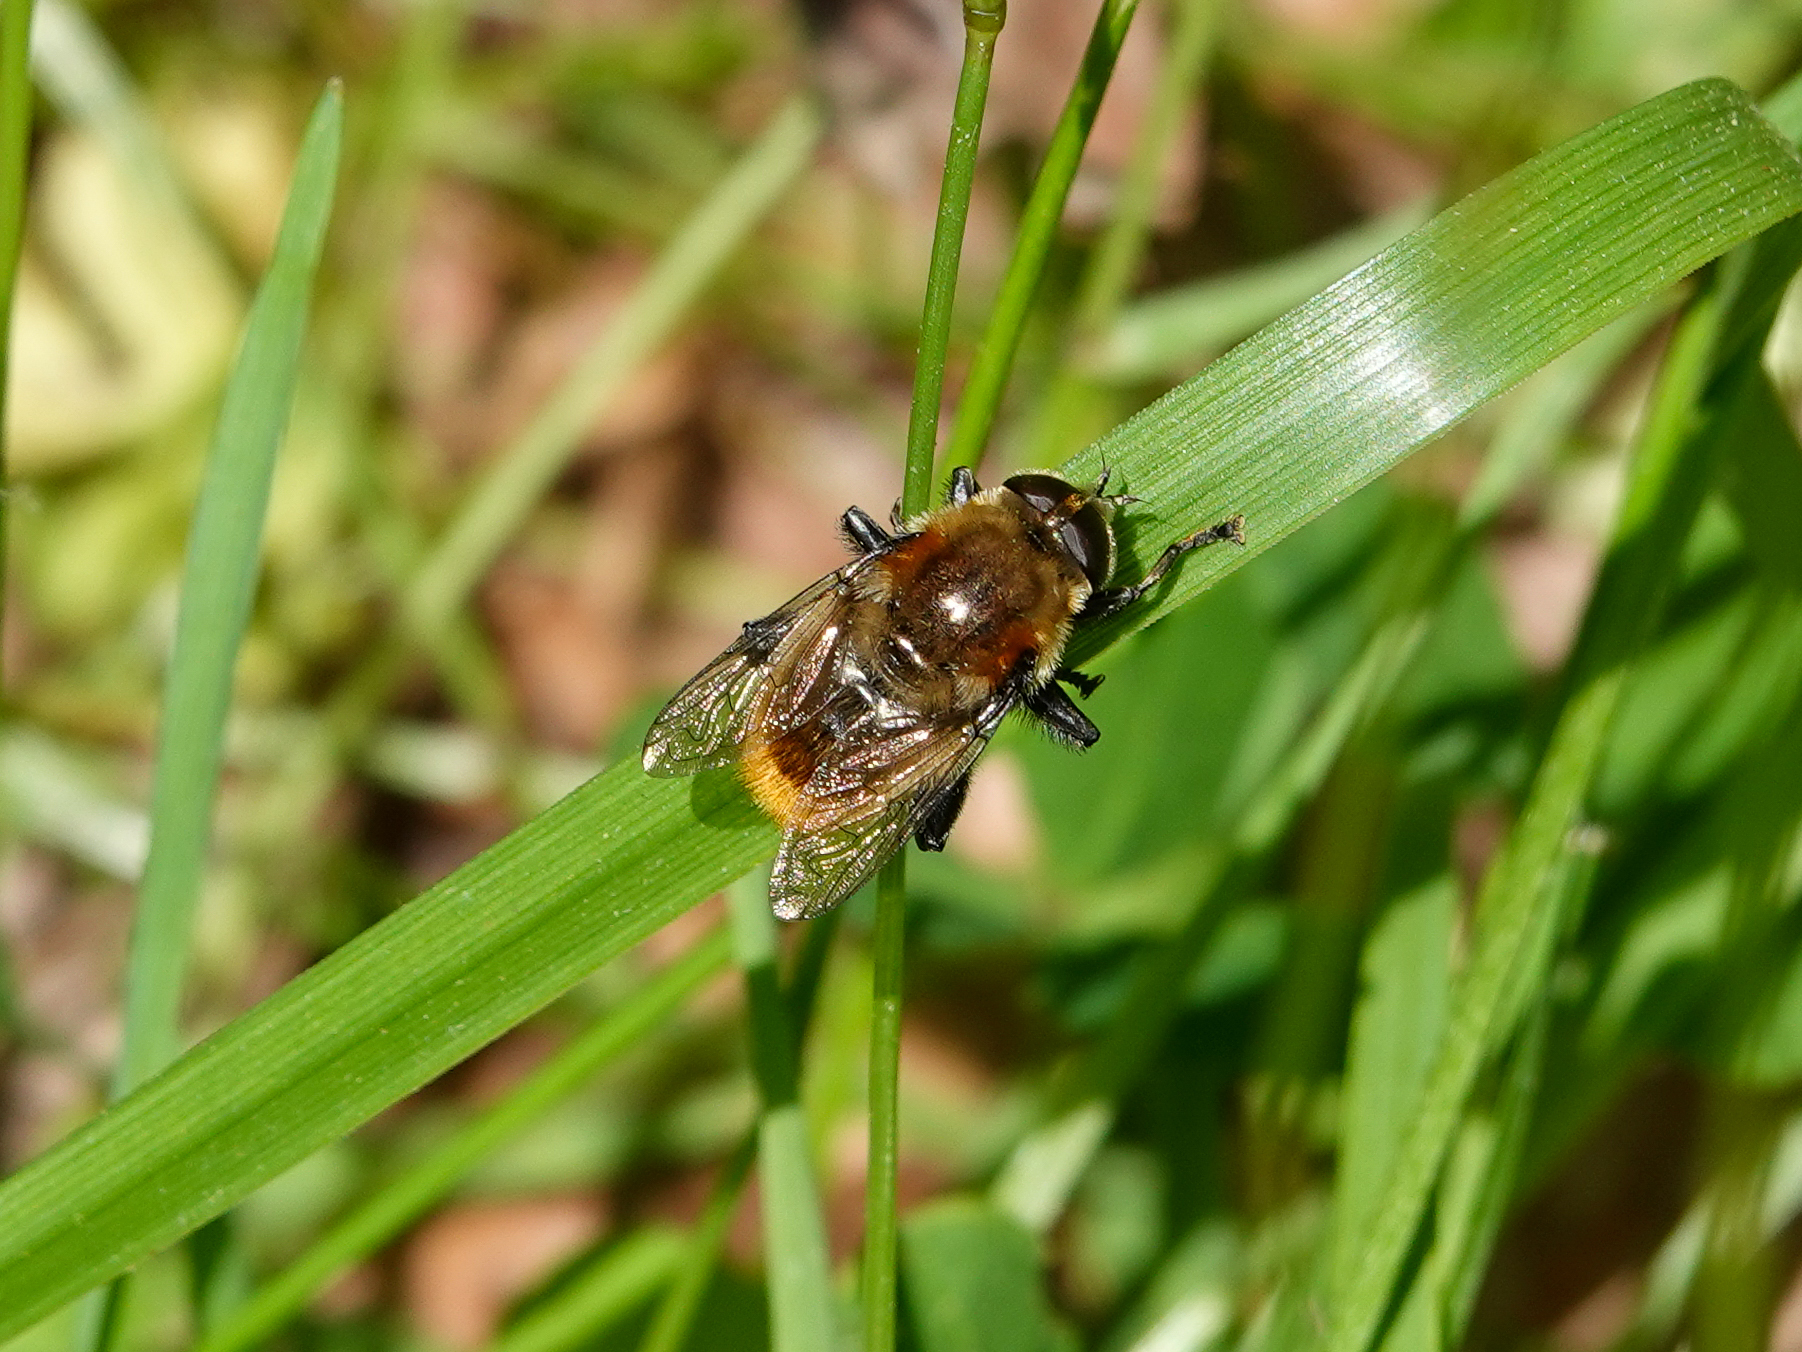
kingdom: Animalia
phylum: Arthropoda
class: Insecta
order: Diptera
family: Syrphidae
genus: Merodon
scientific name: Merodon equestris
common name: Greater bulb-fly
